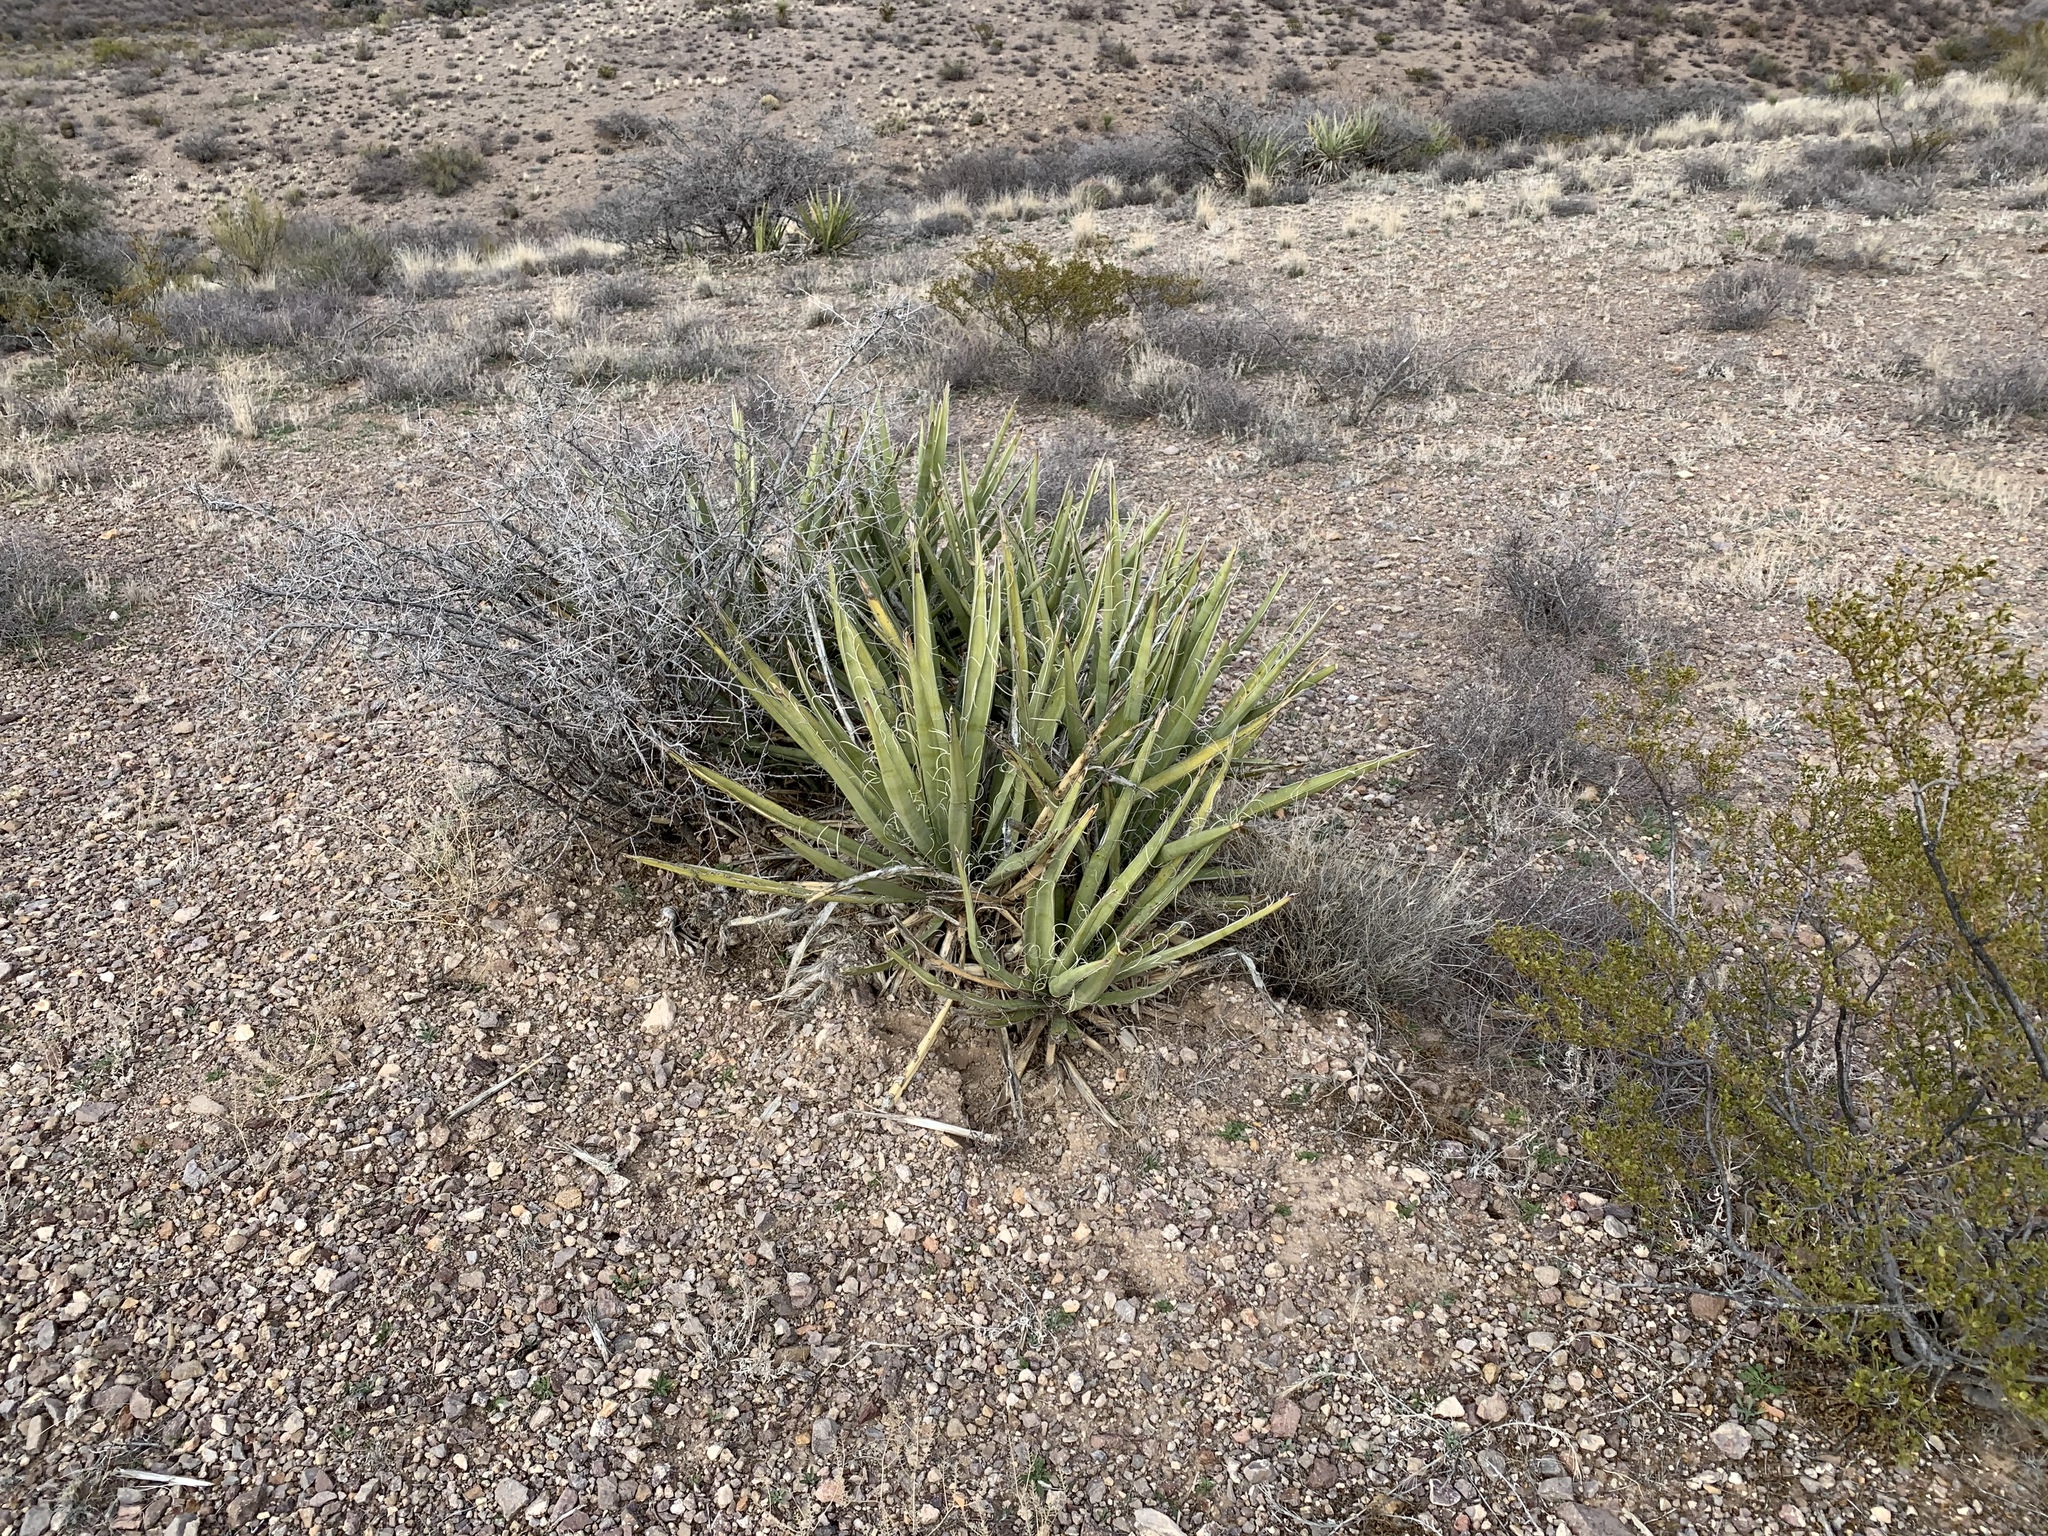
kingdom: Plantae
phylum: Tracheophyta
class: Liliopsida
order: Asparagales
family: Asparagaceae
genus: Yucca
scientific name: Yucca baccata
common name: Banana yucca
